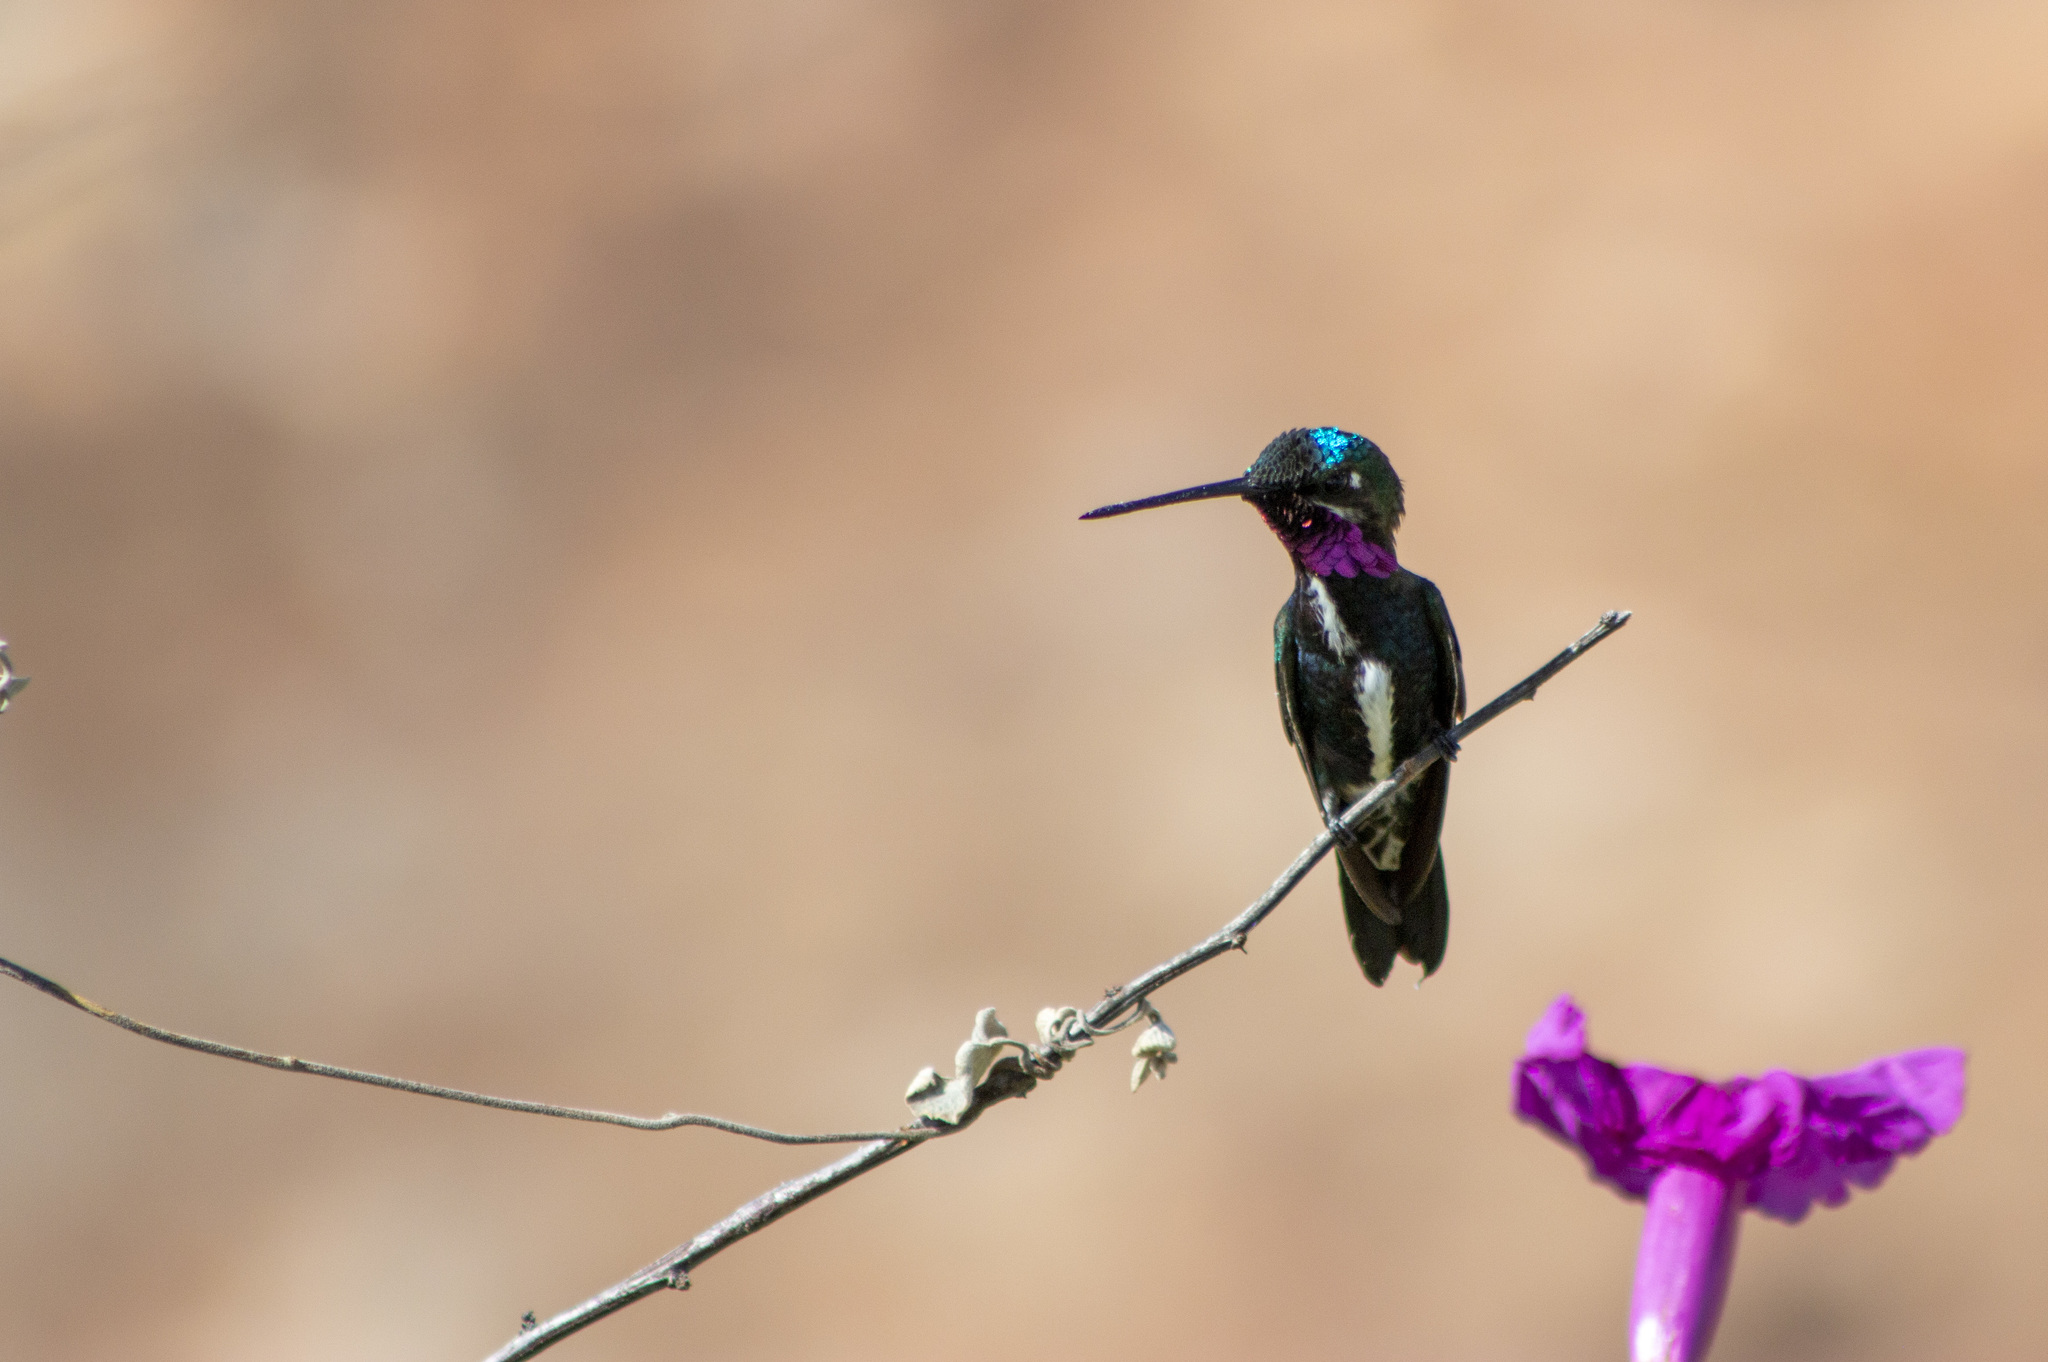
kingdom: Animalia
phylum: Chordata
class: Aves
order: Apodiformes
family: Trochilidae
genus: Heliomaster
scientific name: Heliomaster squamosus
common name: Stripe-breasted starthroat
